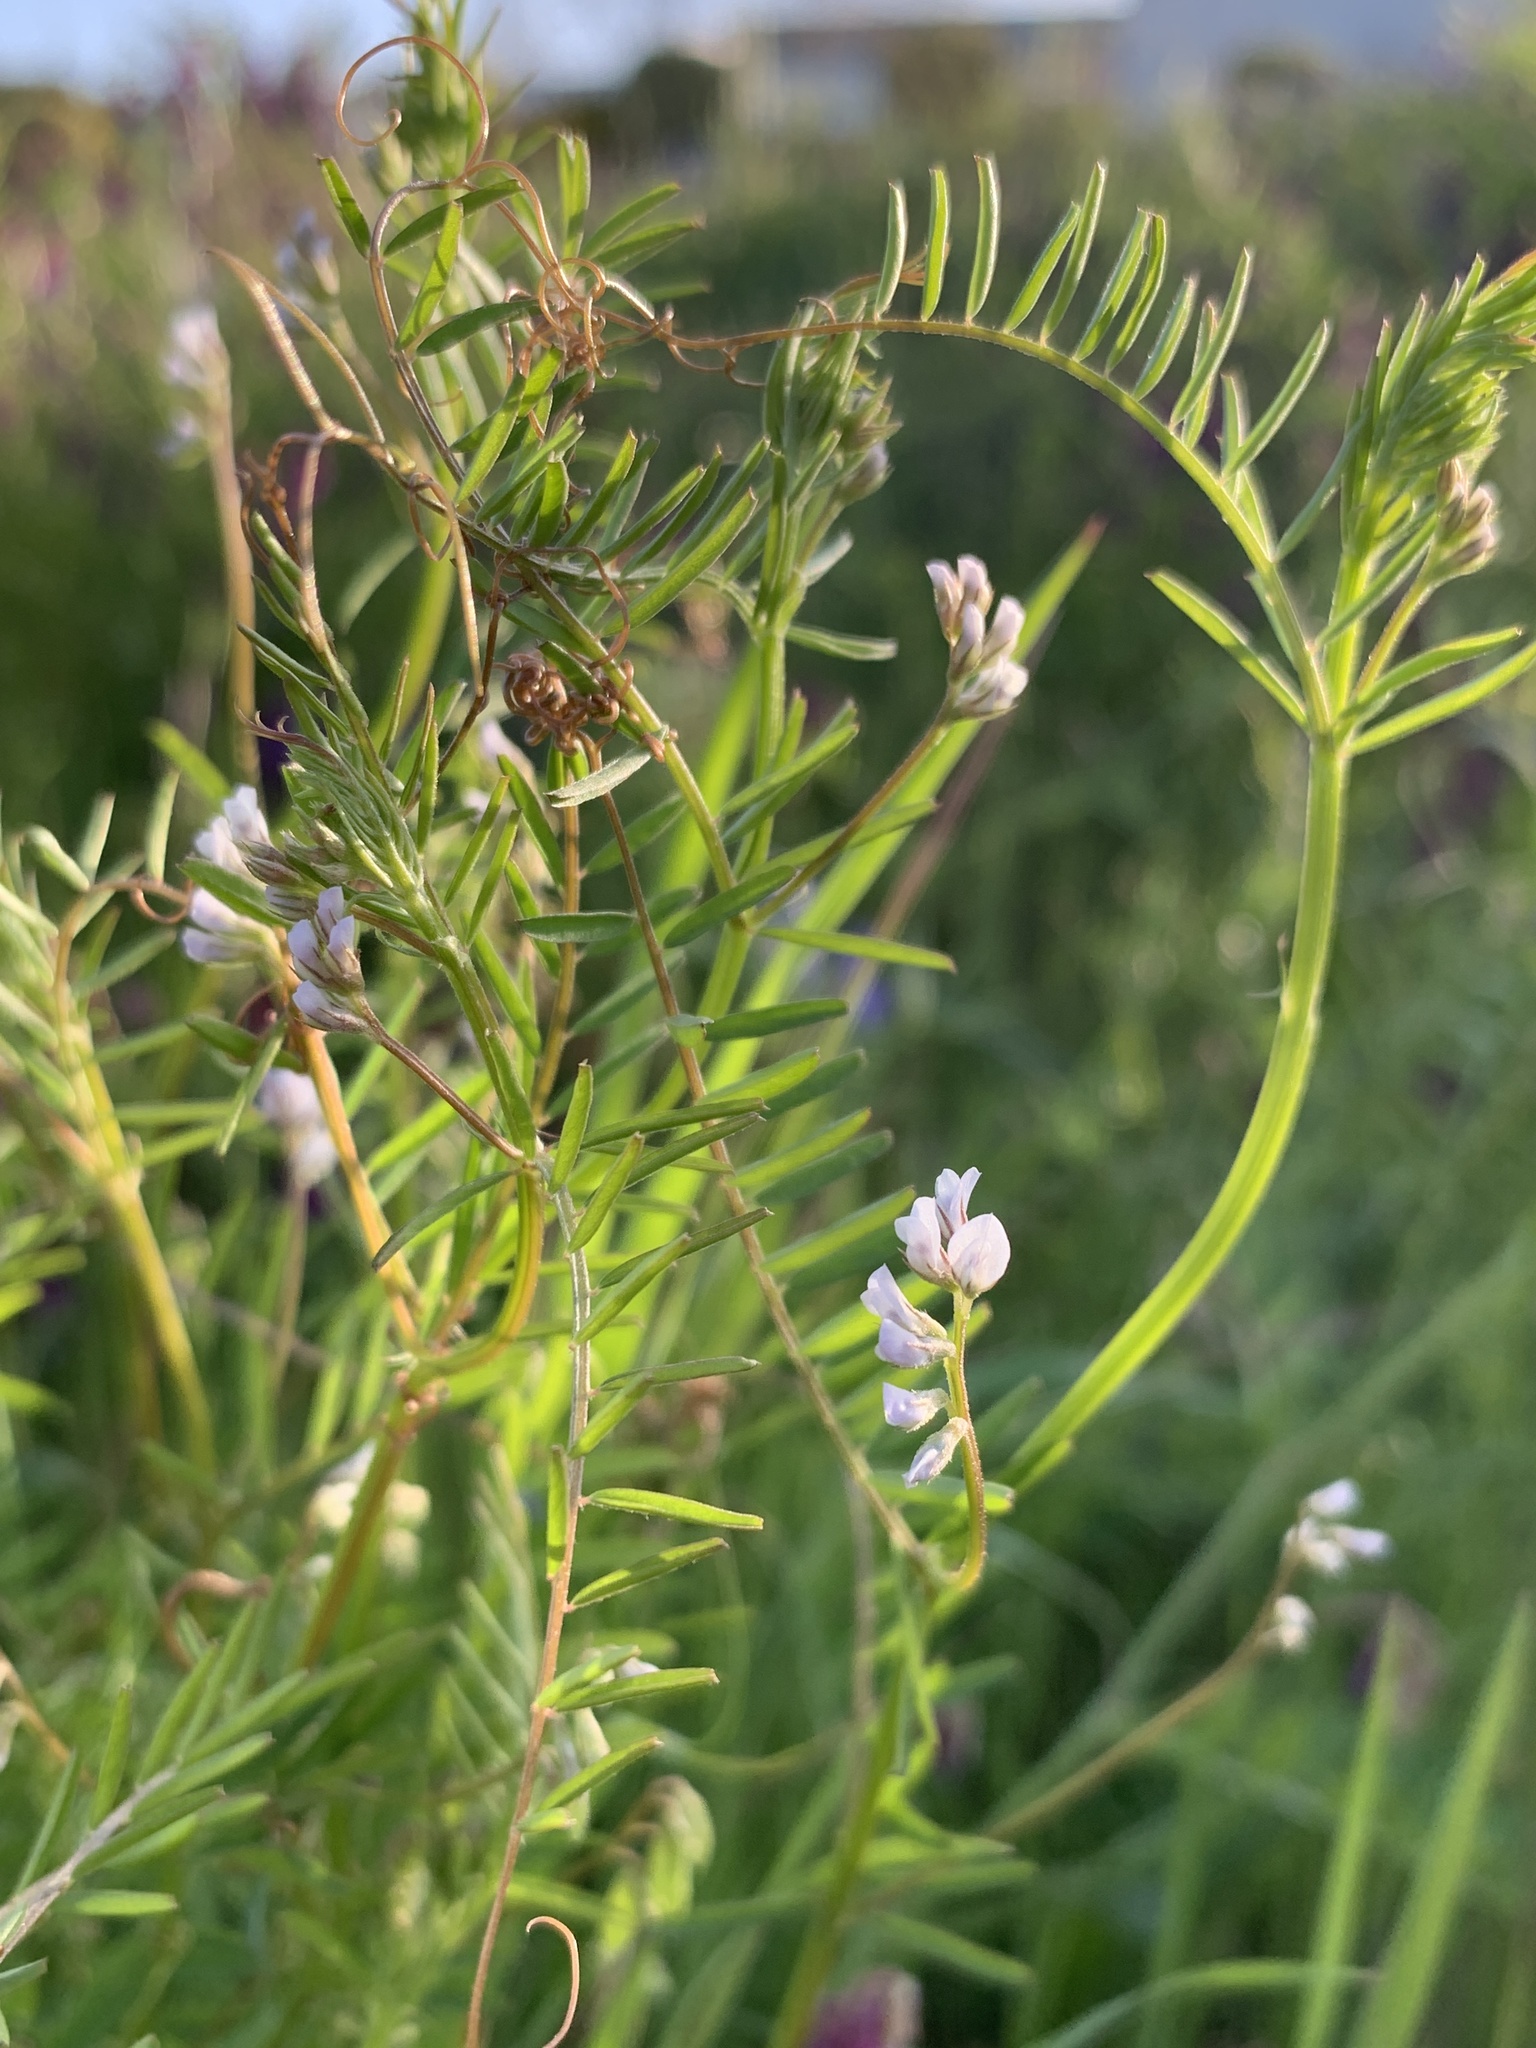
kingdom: Plantae
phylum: Tracheophyta
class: Magnoliopsida
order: Fabales
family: Fabaceae
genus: Vicia
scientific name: Vicia hirsuta
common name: Tiny vetch
